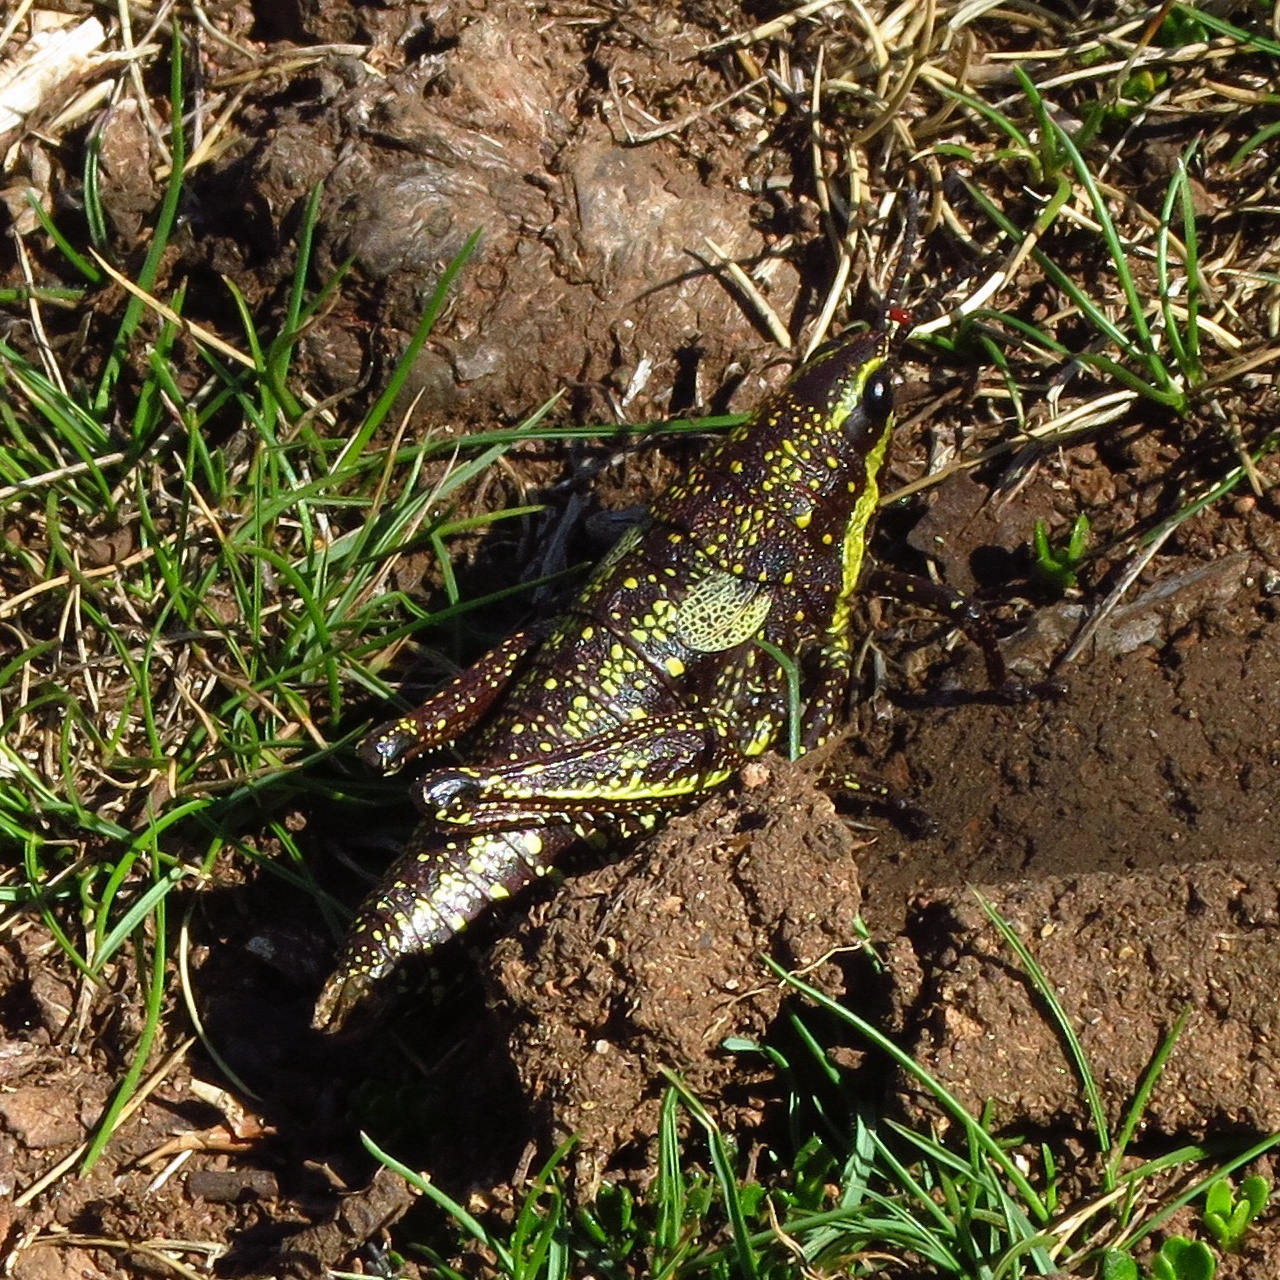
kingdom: Animalia
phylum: Arthropoda
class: Insecta
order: Orthoptera
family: Pyrgomorphidae
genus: Monistria
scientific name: Monistria concinna
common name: Southern pyrgomorph
